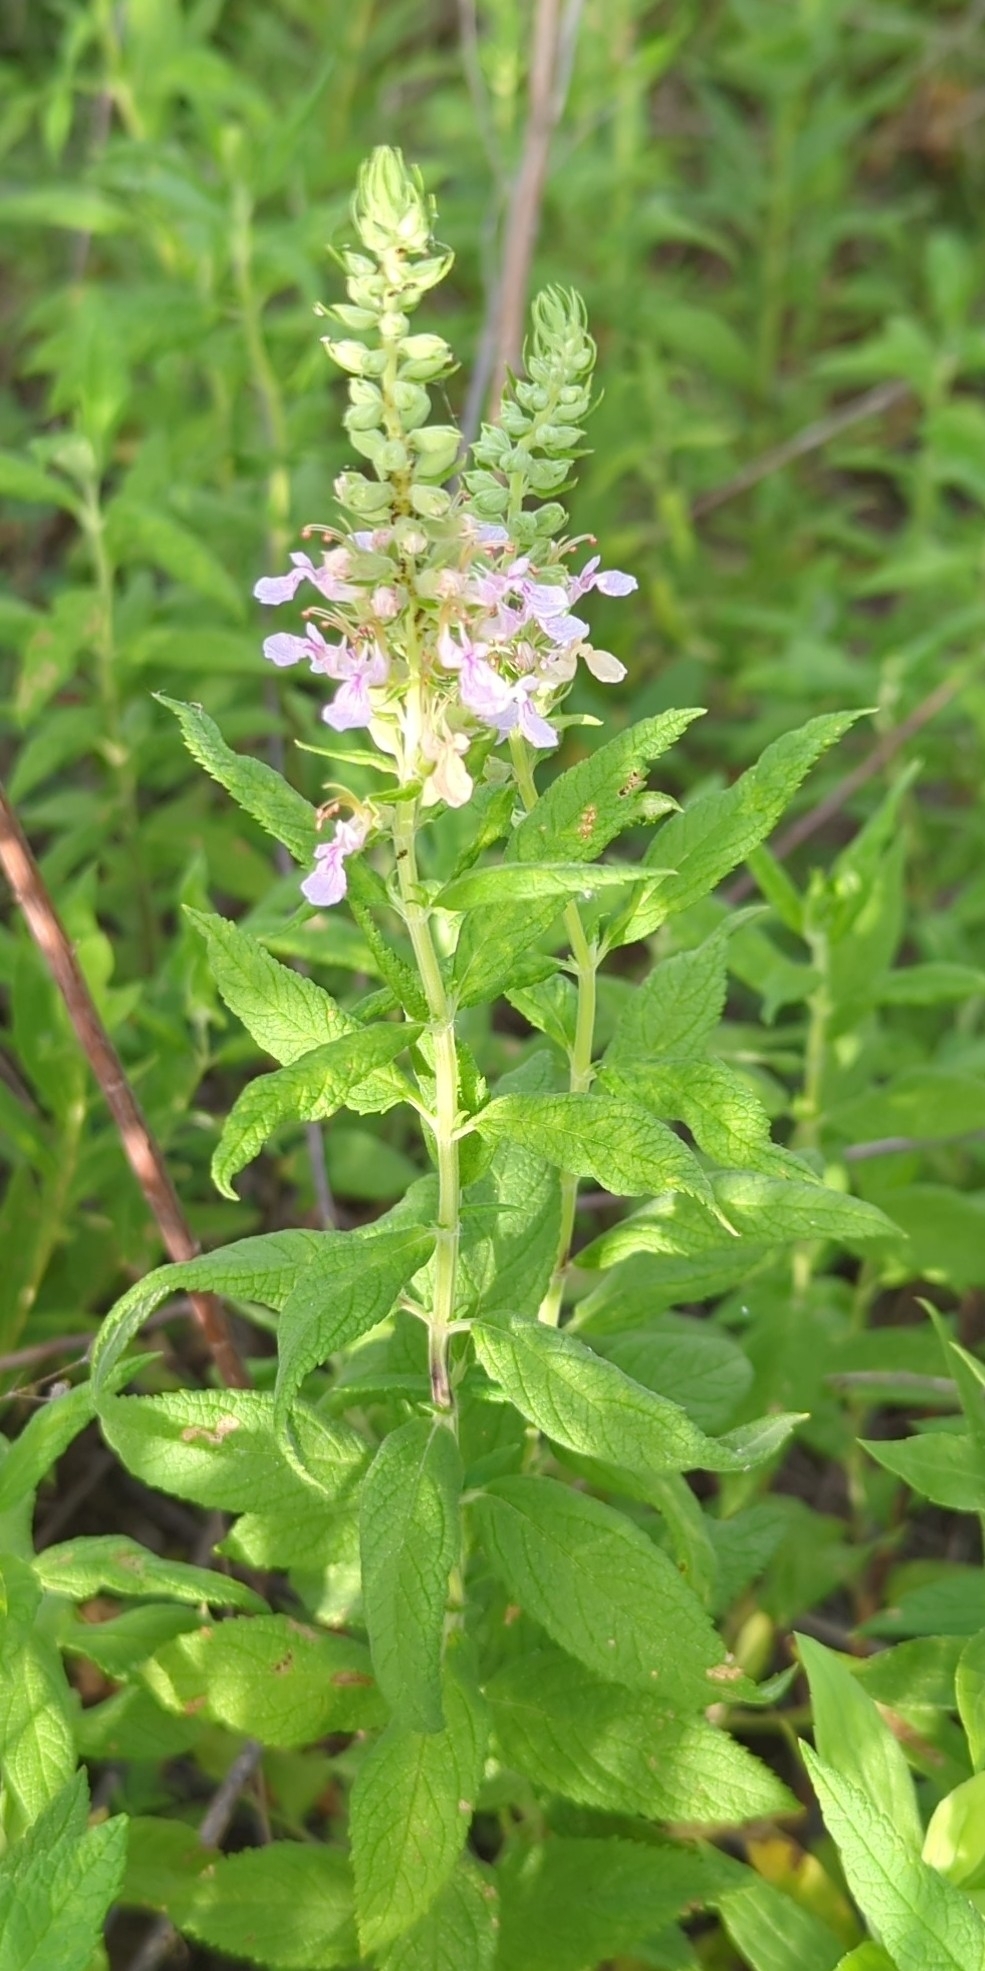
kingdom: Plantae
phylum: Tracheophyta
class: Magnoliopsida
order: Lamiales
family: Lamiaceae
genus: Teucrium
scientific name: Teucrium canadense
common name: American germander
